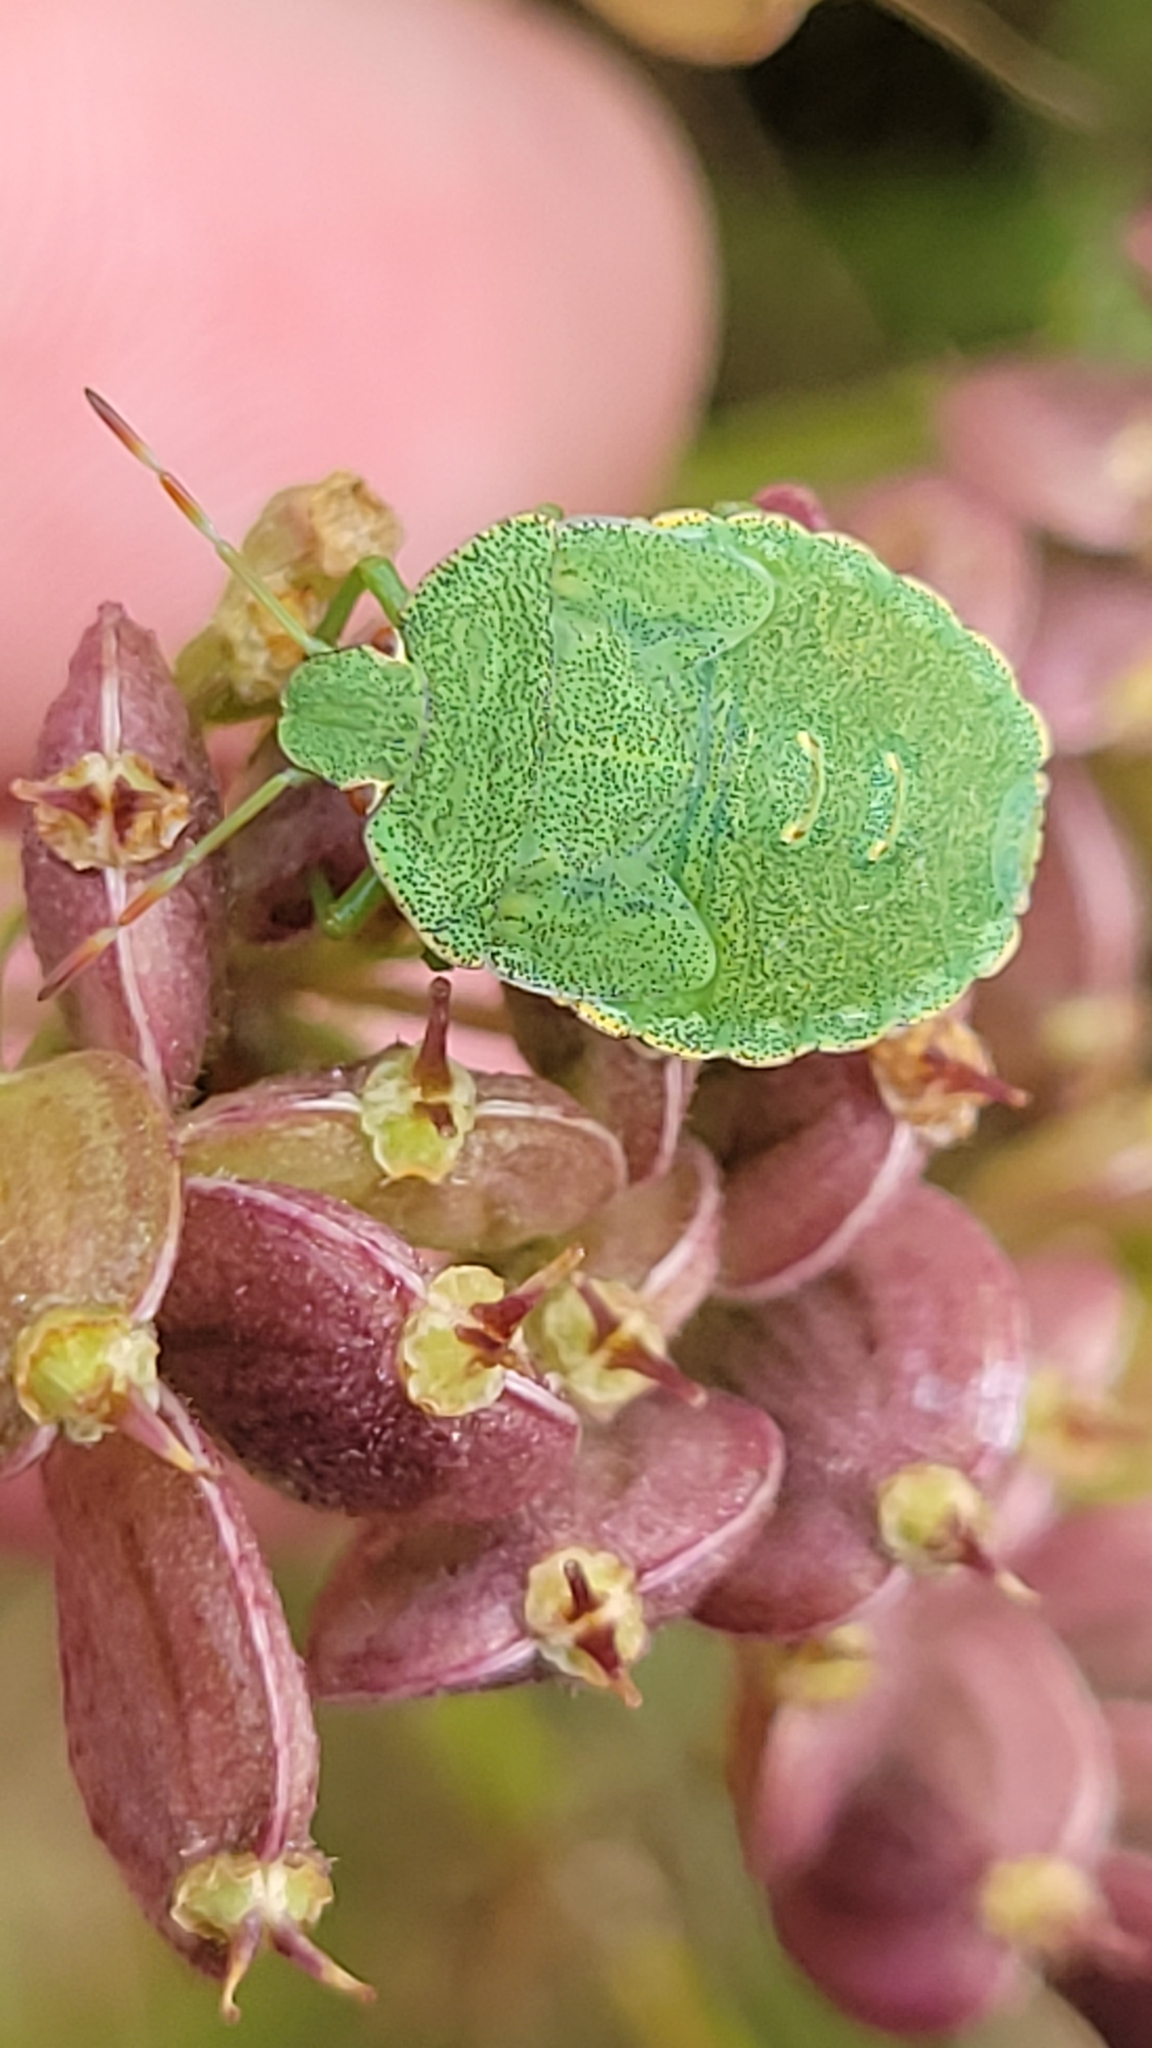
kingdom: Animalia
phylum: Arthropoda
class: Insecta
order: Hemiptera
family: Pentatomidae
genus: Palomena
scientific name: Palomena prasina
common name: Green shieldbug
